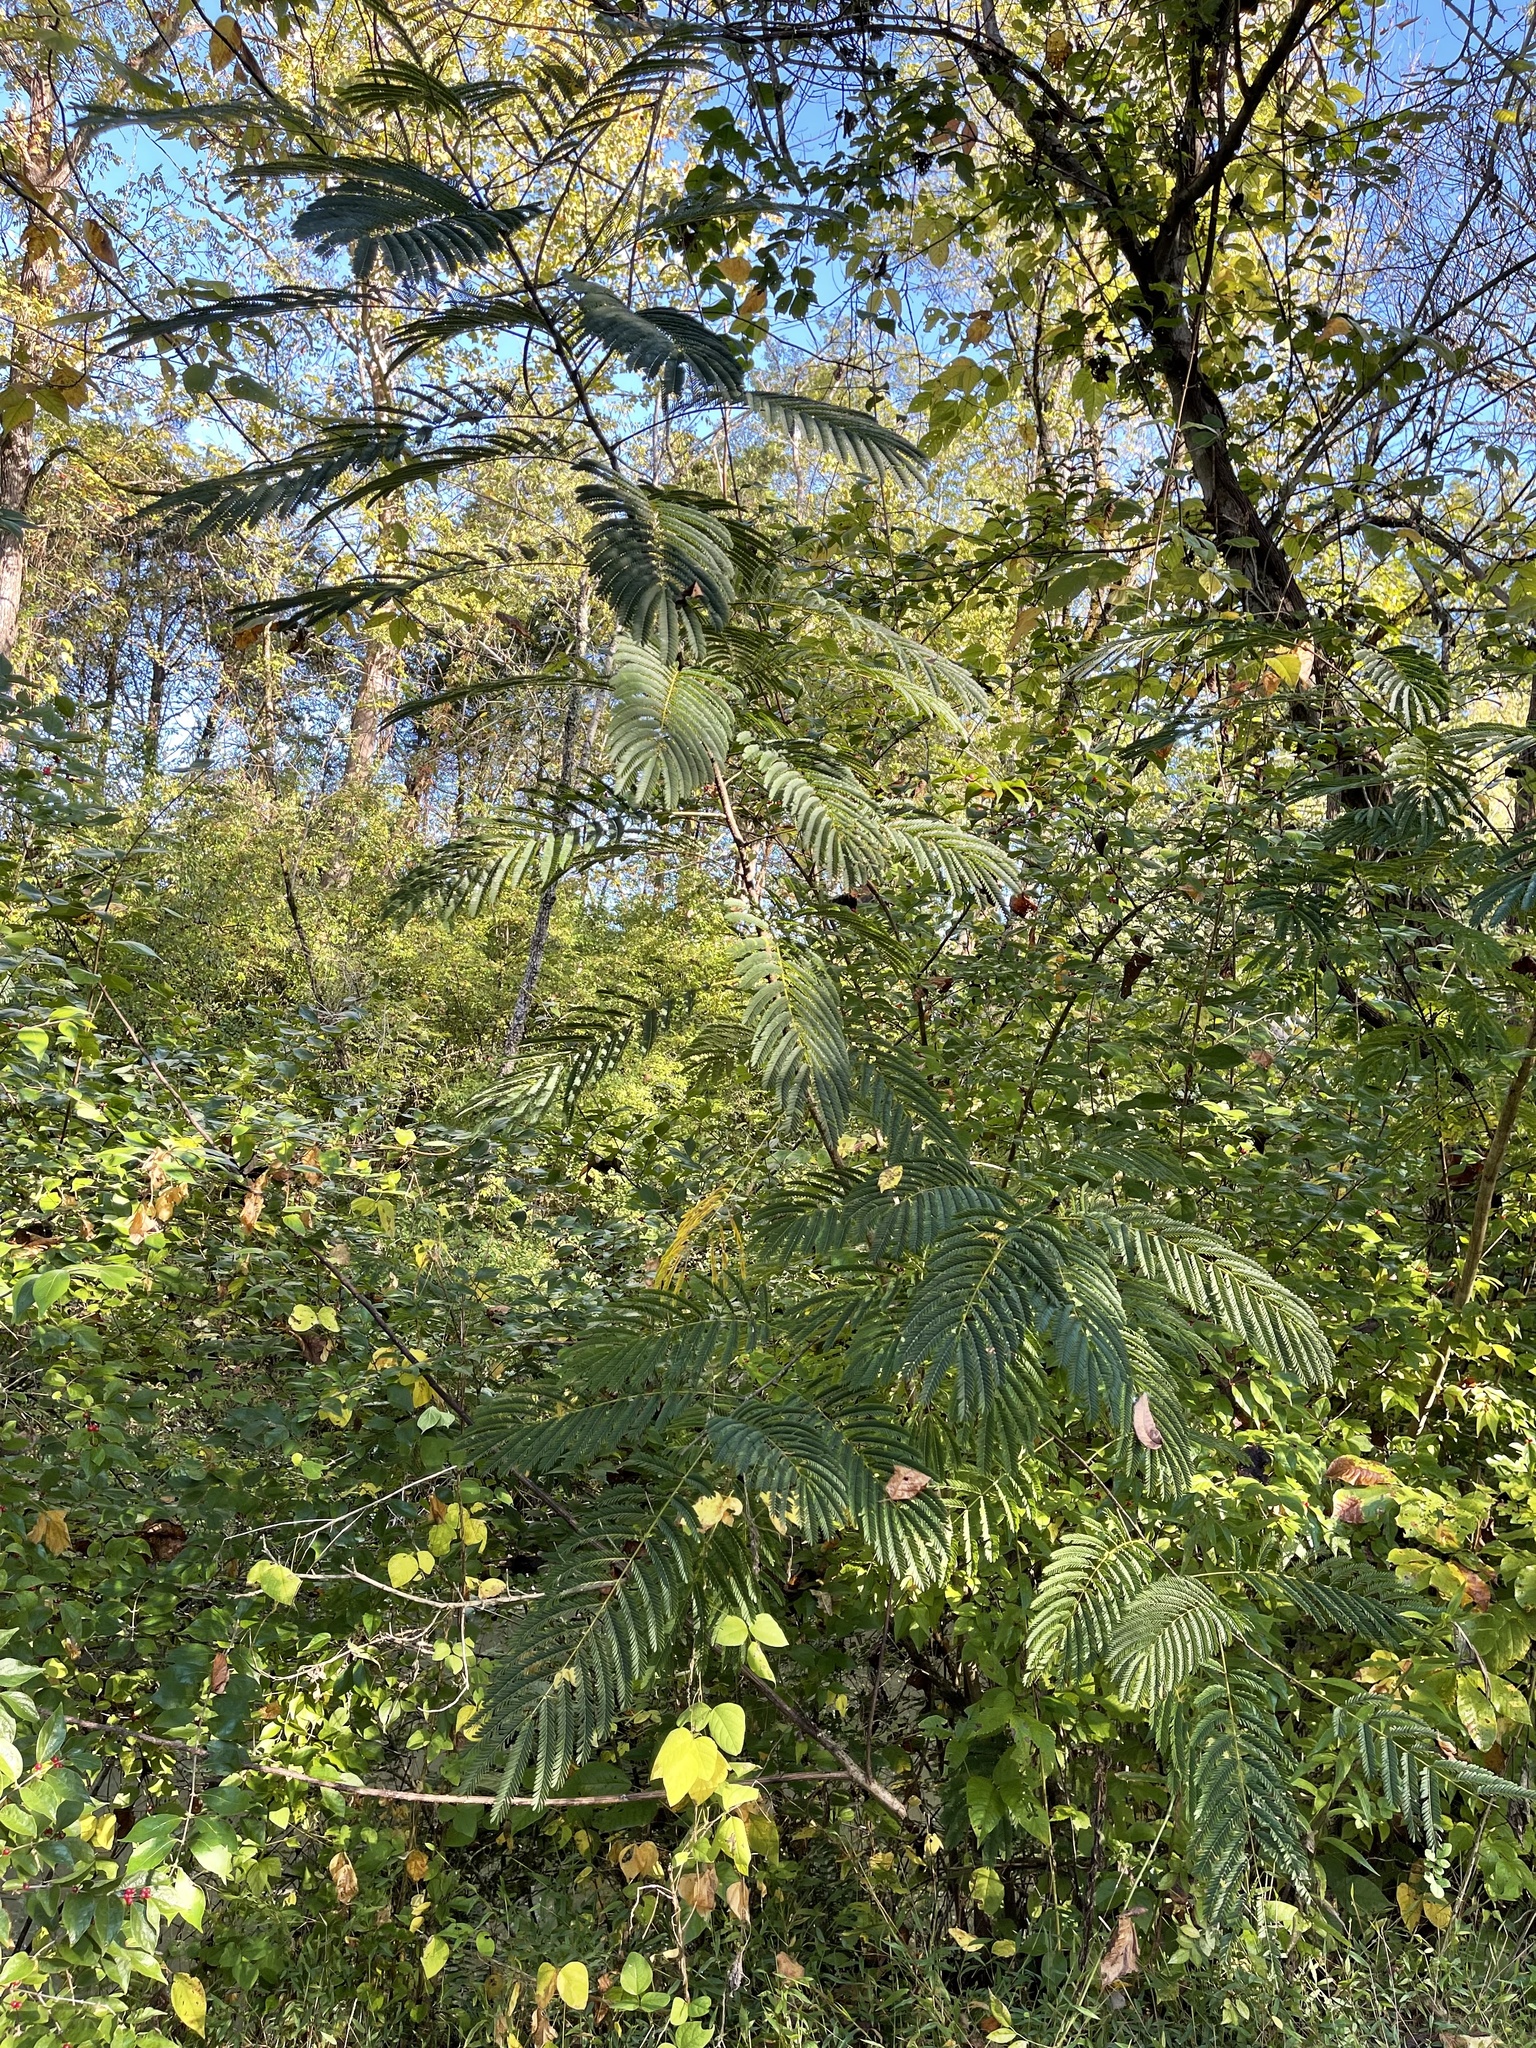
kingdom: Plantae
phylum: Tracheophyta
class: Magnoliopsida
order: Fabales
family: Fabaceae
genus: Albizia
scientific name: Albizia julibrissin
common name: Silktree
